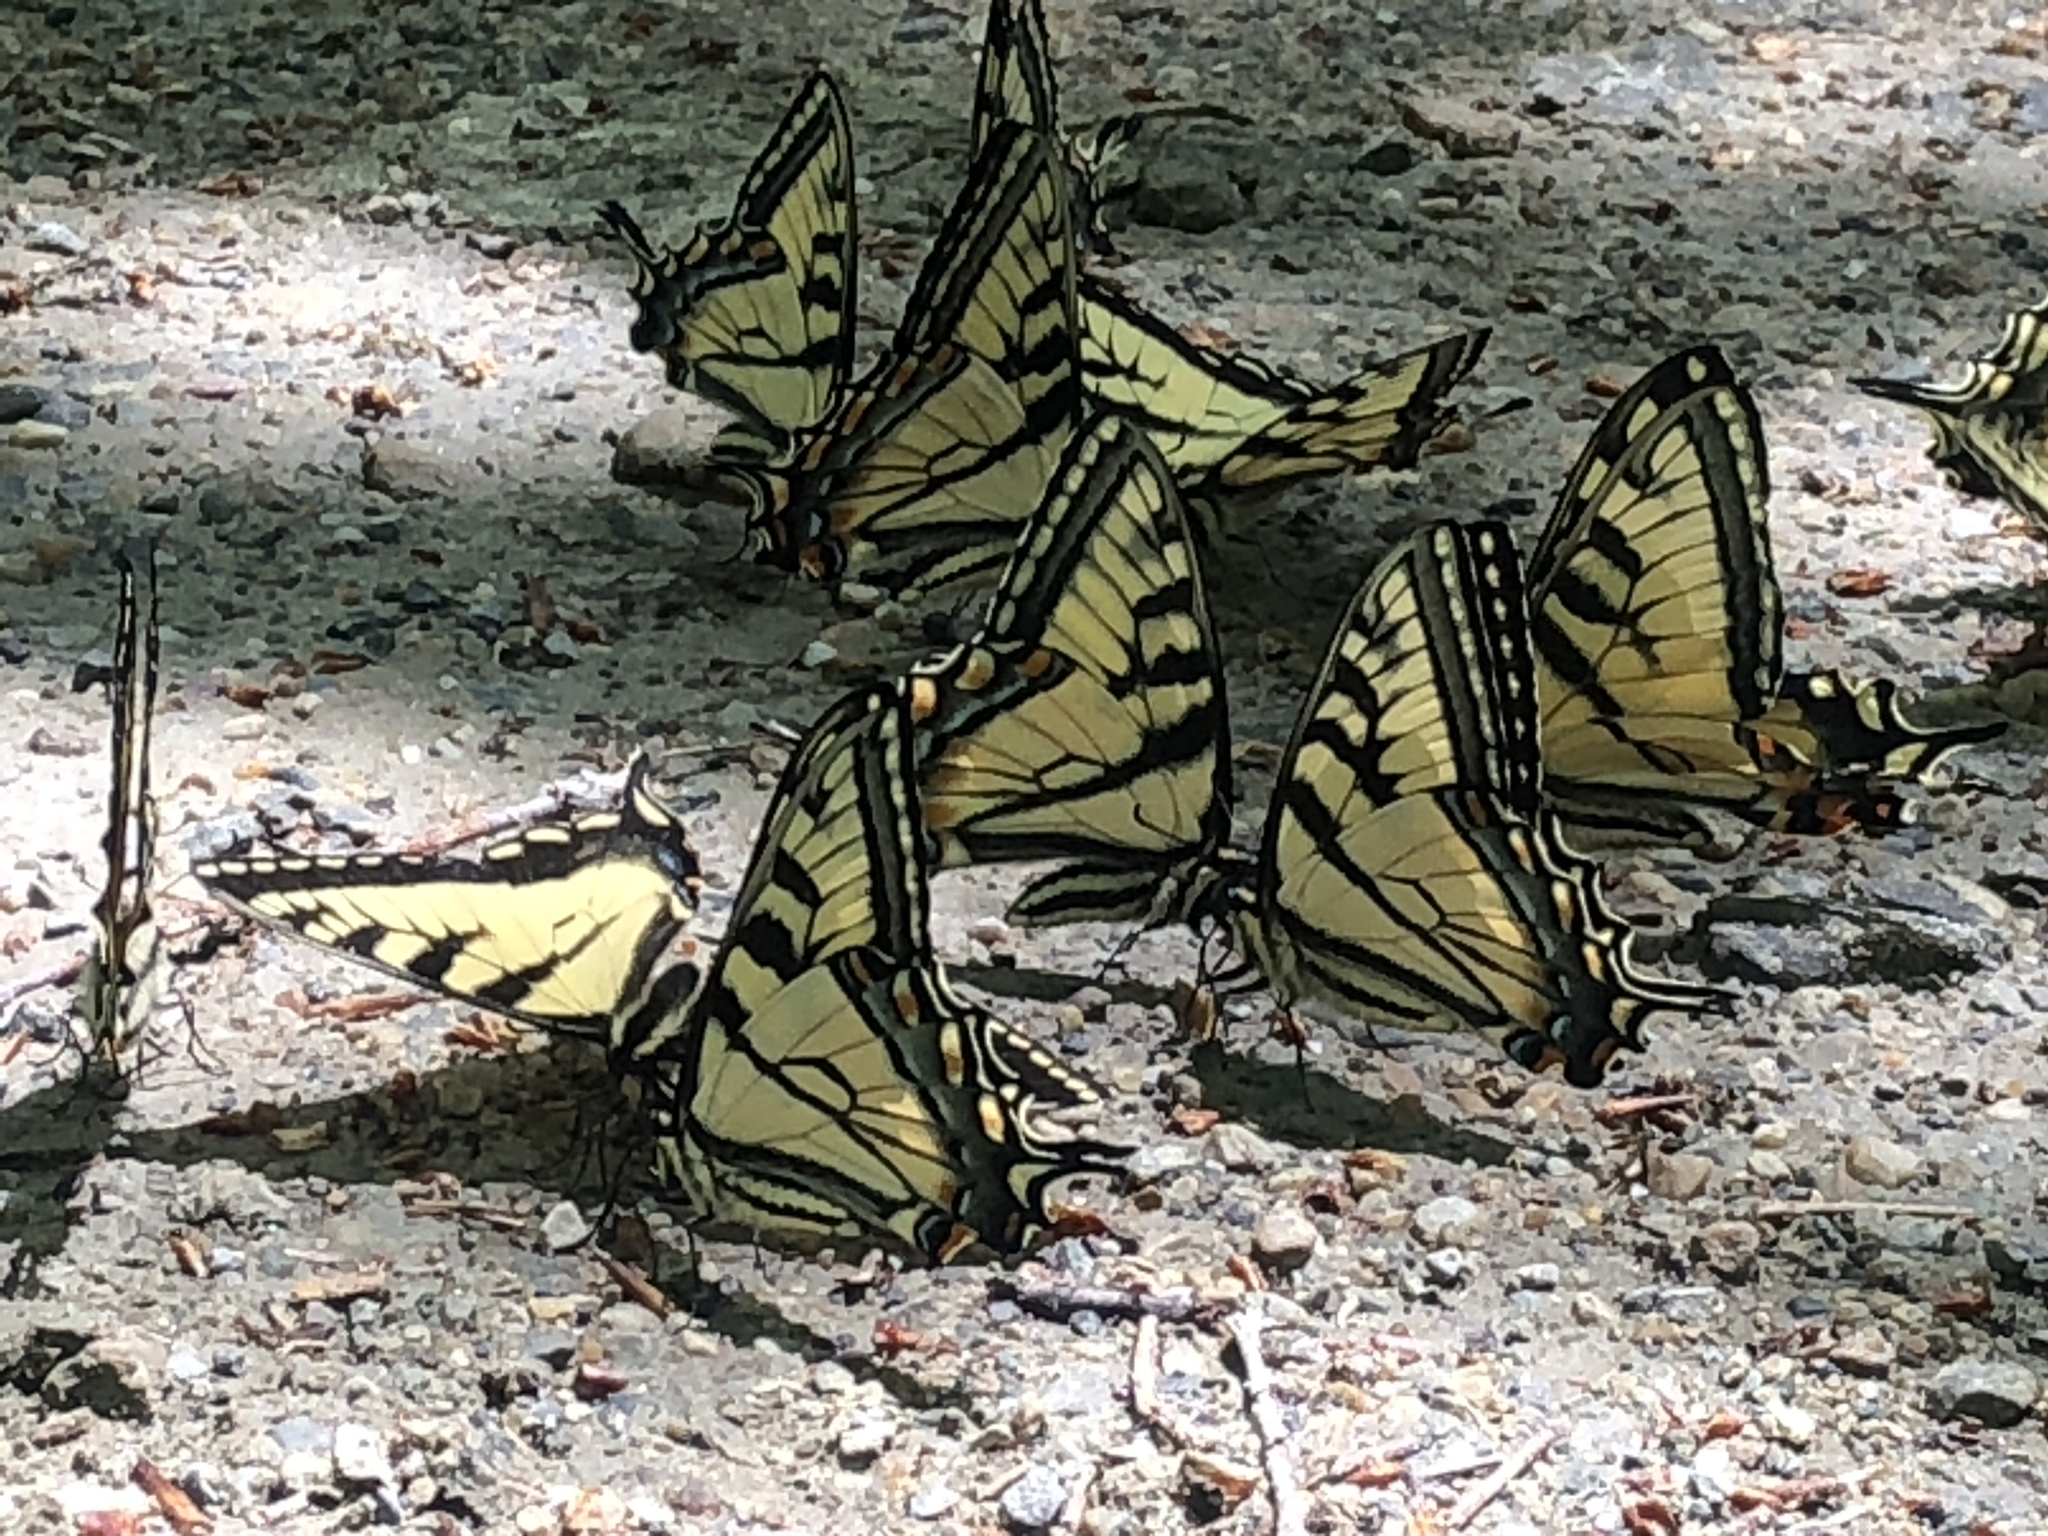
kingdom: Animalia
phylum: Arthropoda
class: Insecta
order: Lepidoptera
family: Papilionidae
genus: Papilio
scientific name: Papilio canadensis
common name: Canadian tiger swallowtail
